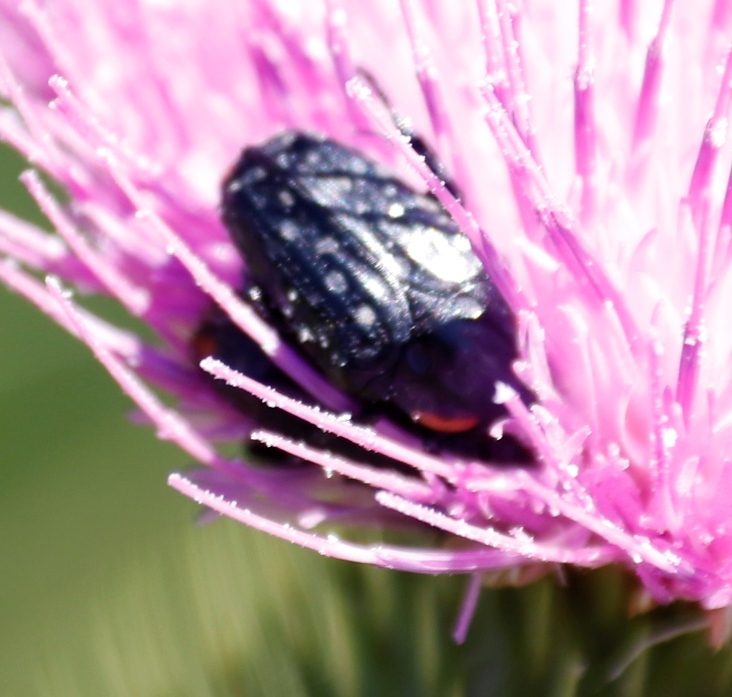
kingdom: Animalia
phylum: Arthropoda
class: Insecta
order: Coleoptera
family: Scarabaeidae
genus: Oxythyrea
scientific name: Oxythyrea
